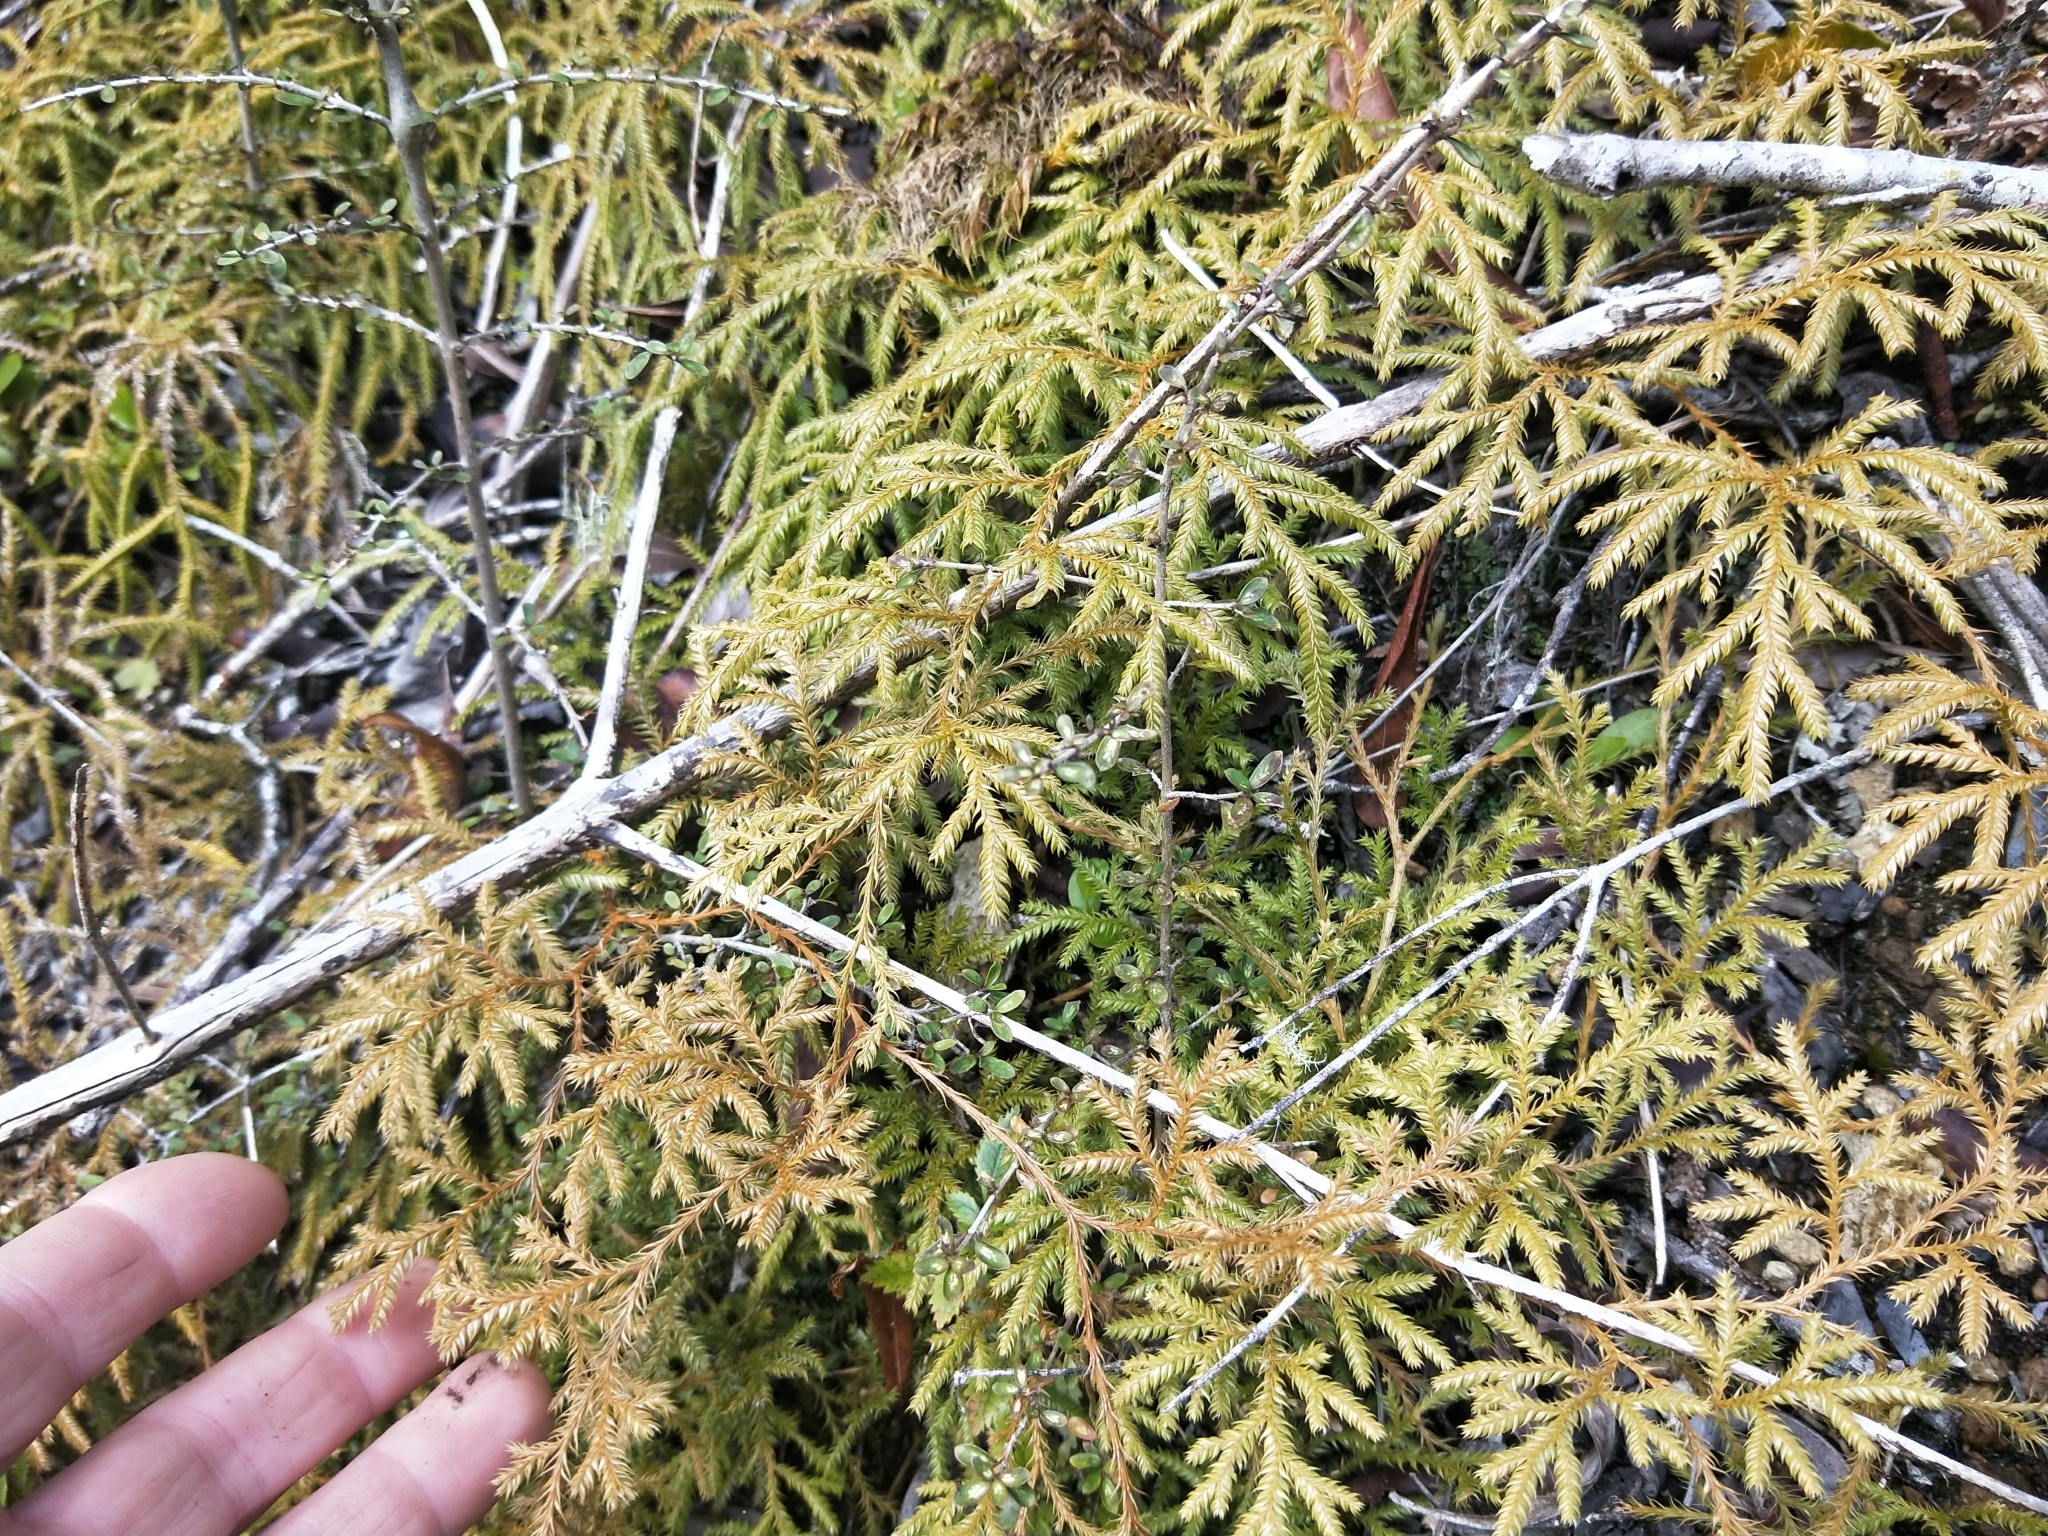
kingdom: Plantae
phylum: Tracheophyta
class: Lycopodiopsida
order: Lycopodiales
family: Lycopodiaceae
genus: Lycopodium
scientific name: Lycopodium volubile
